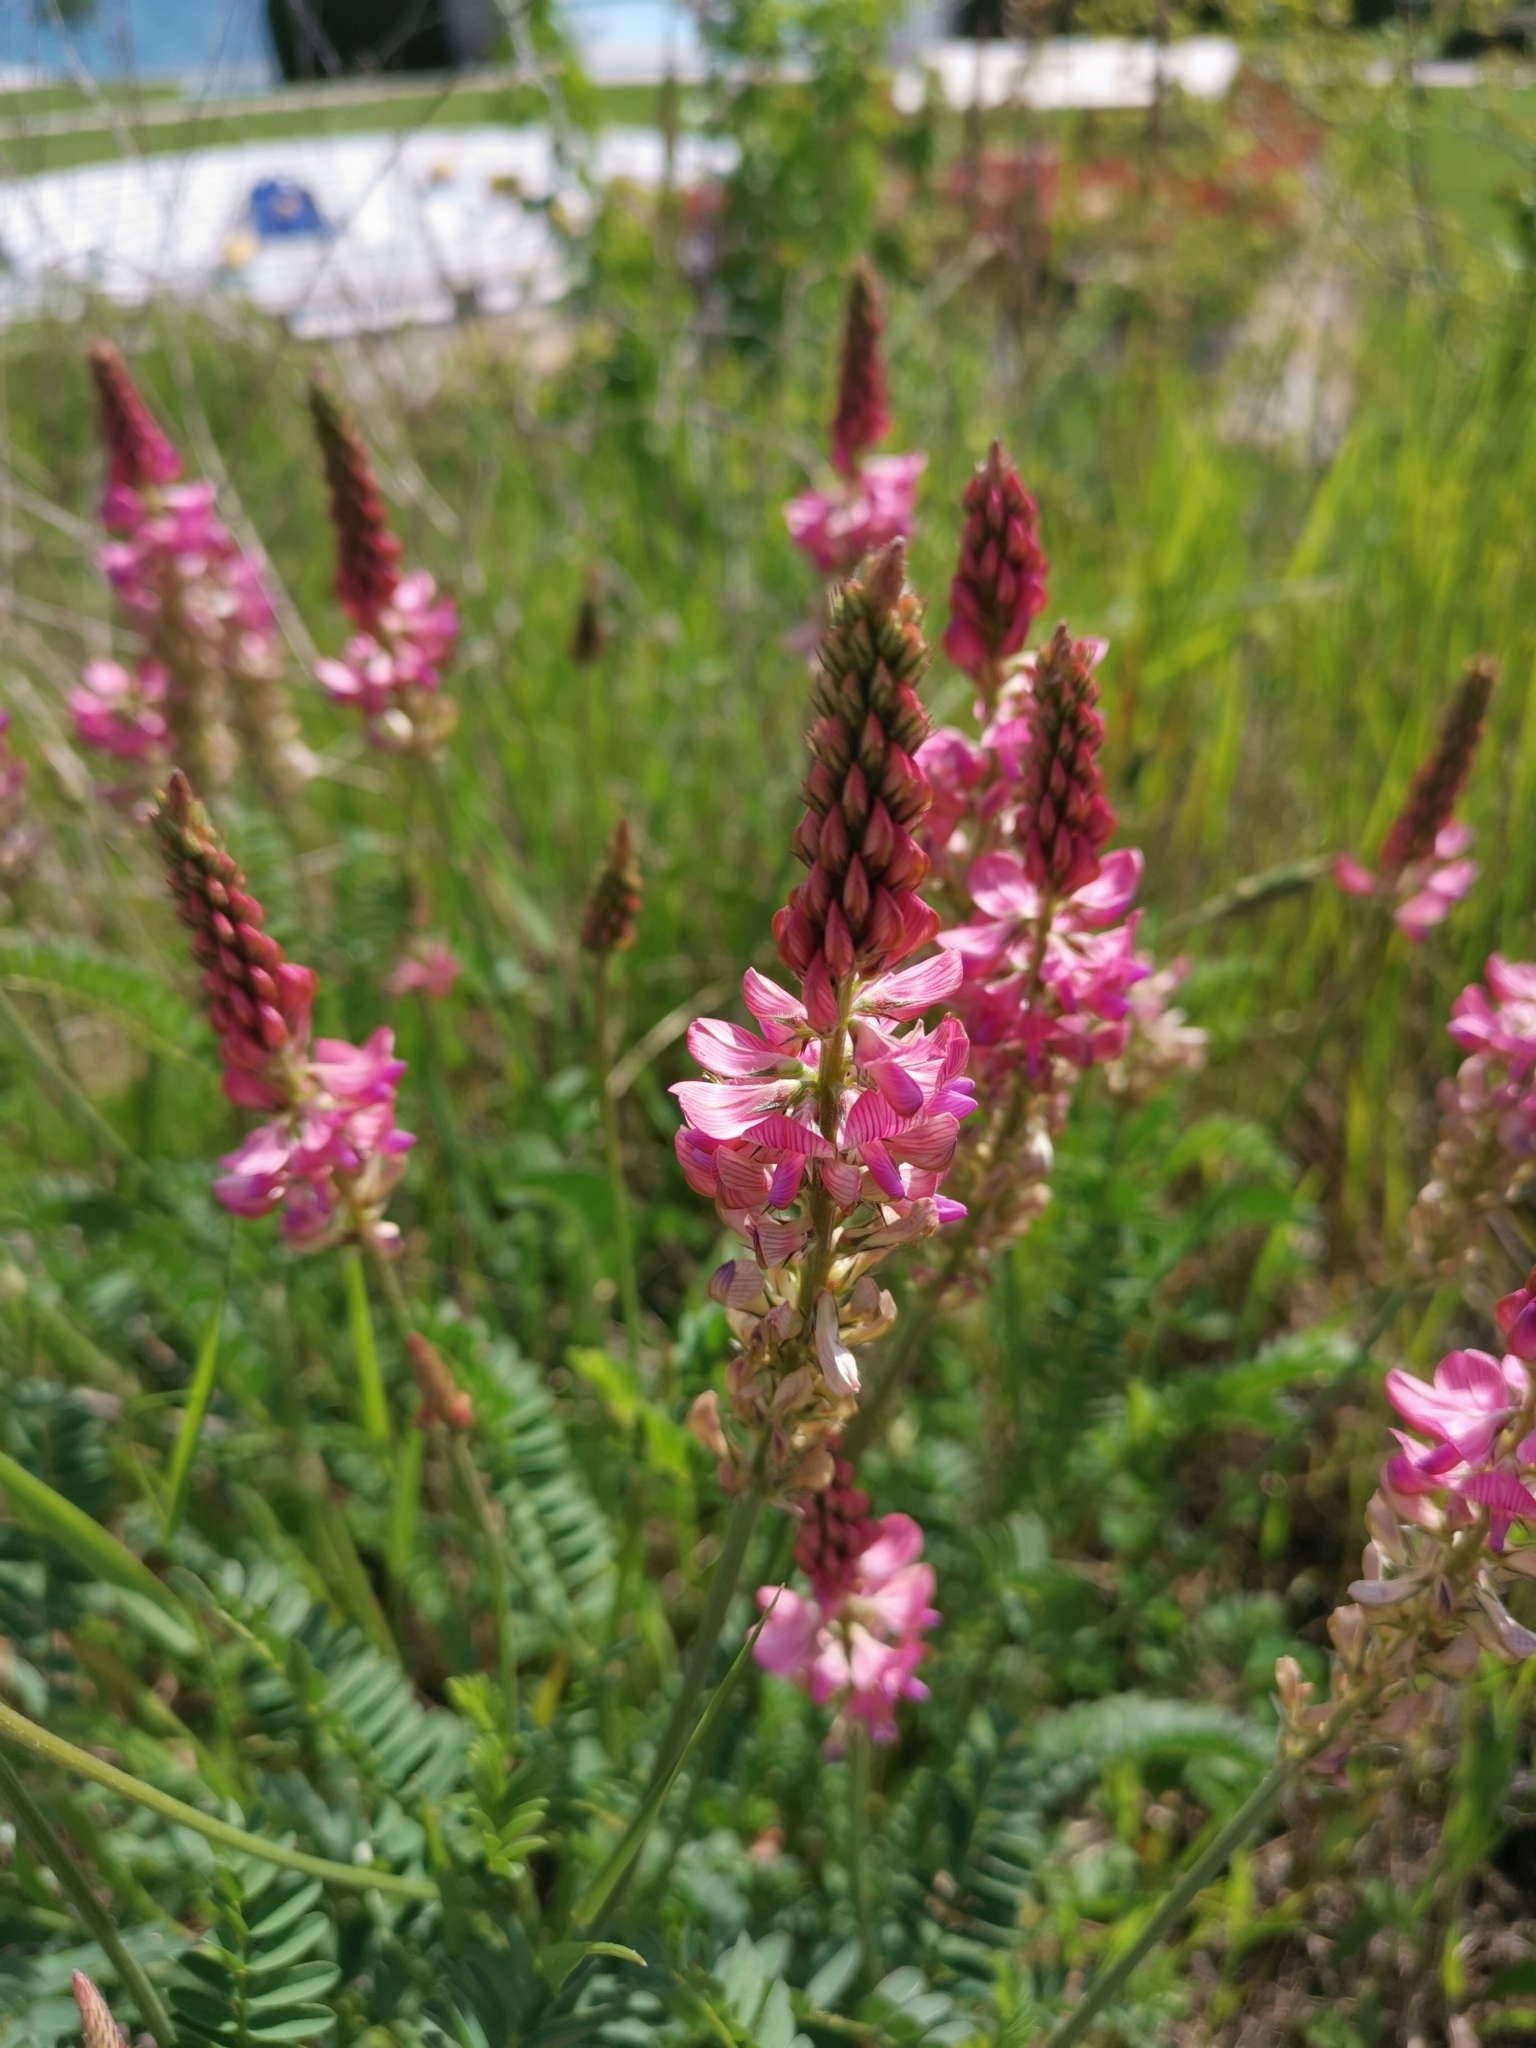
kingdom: Plantae
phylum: Tracheophyta
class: Magnoliopsida
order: Fabales
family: Fabaceae
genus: Onobrychis
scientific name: Onobrychis viciifolia
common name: Sainfoin
